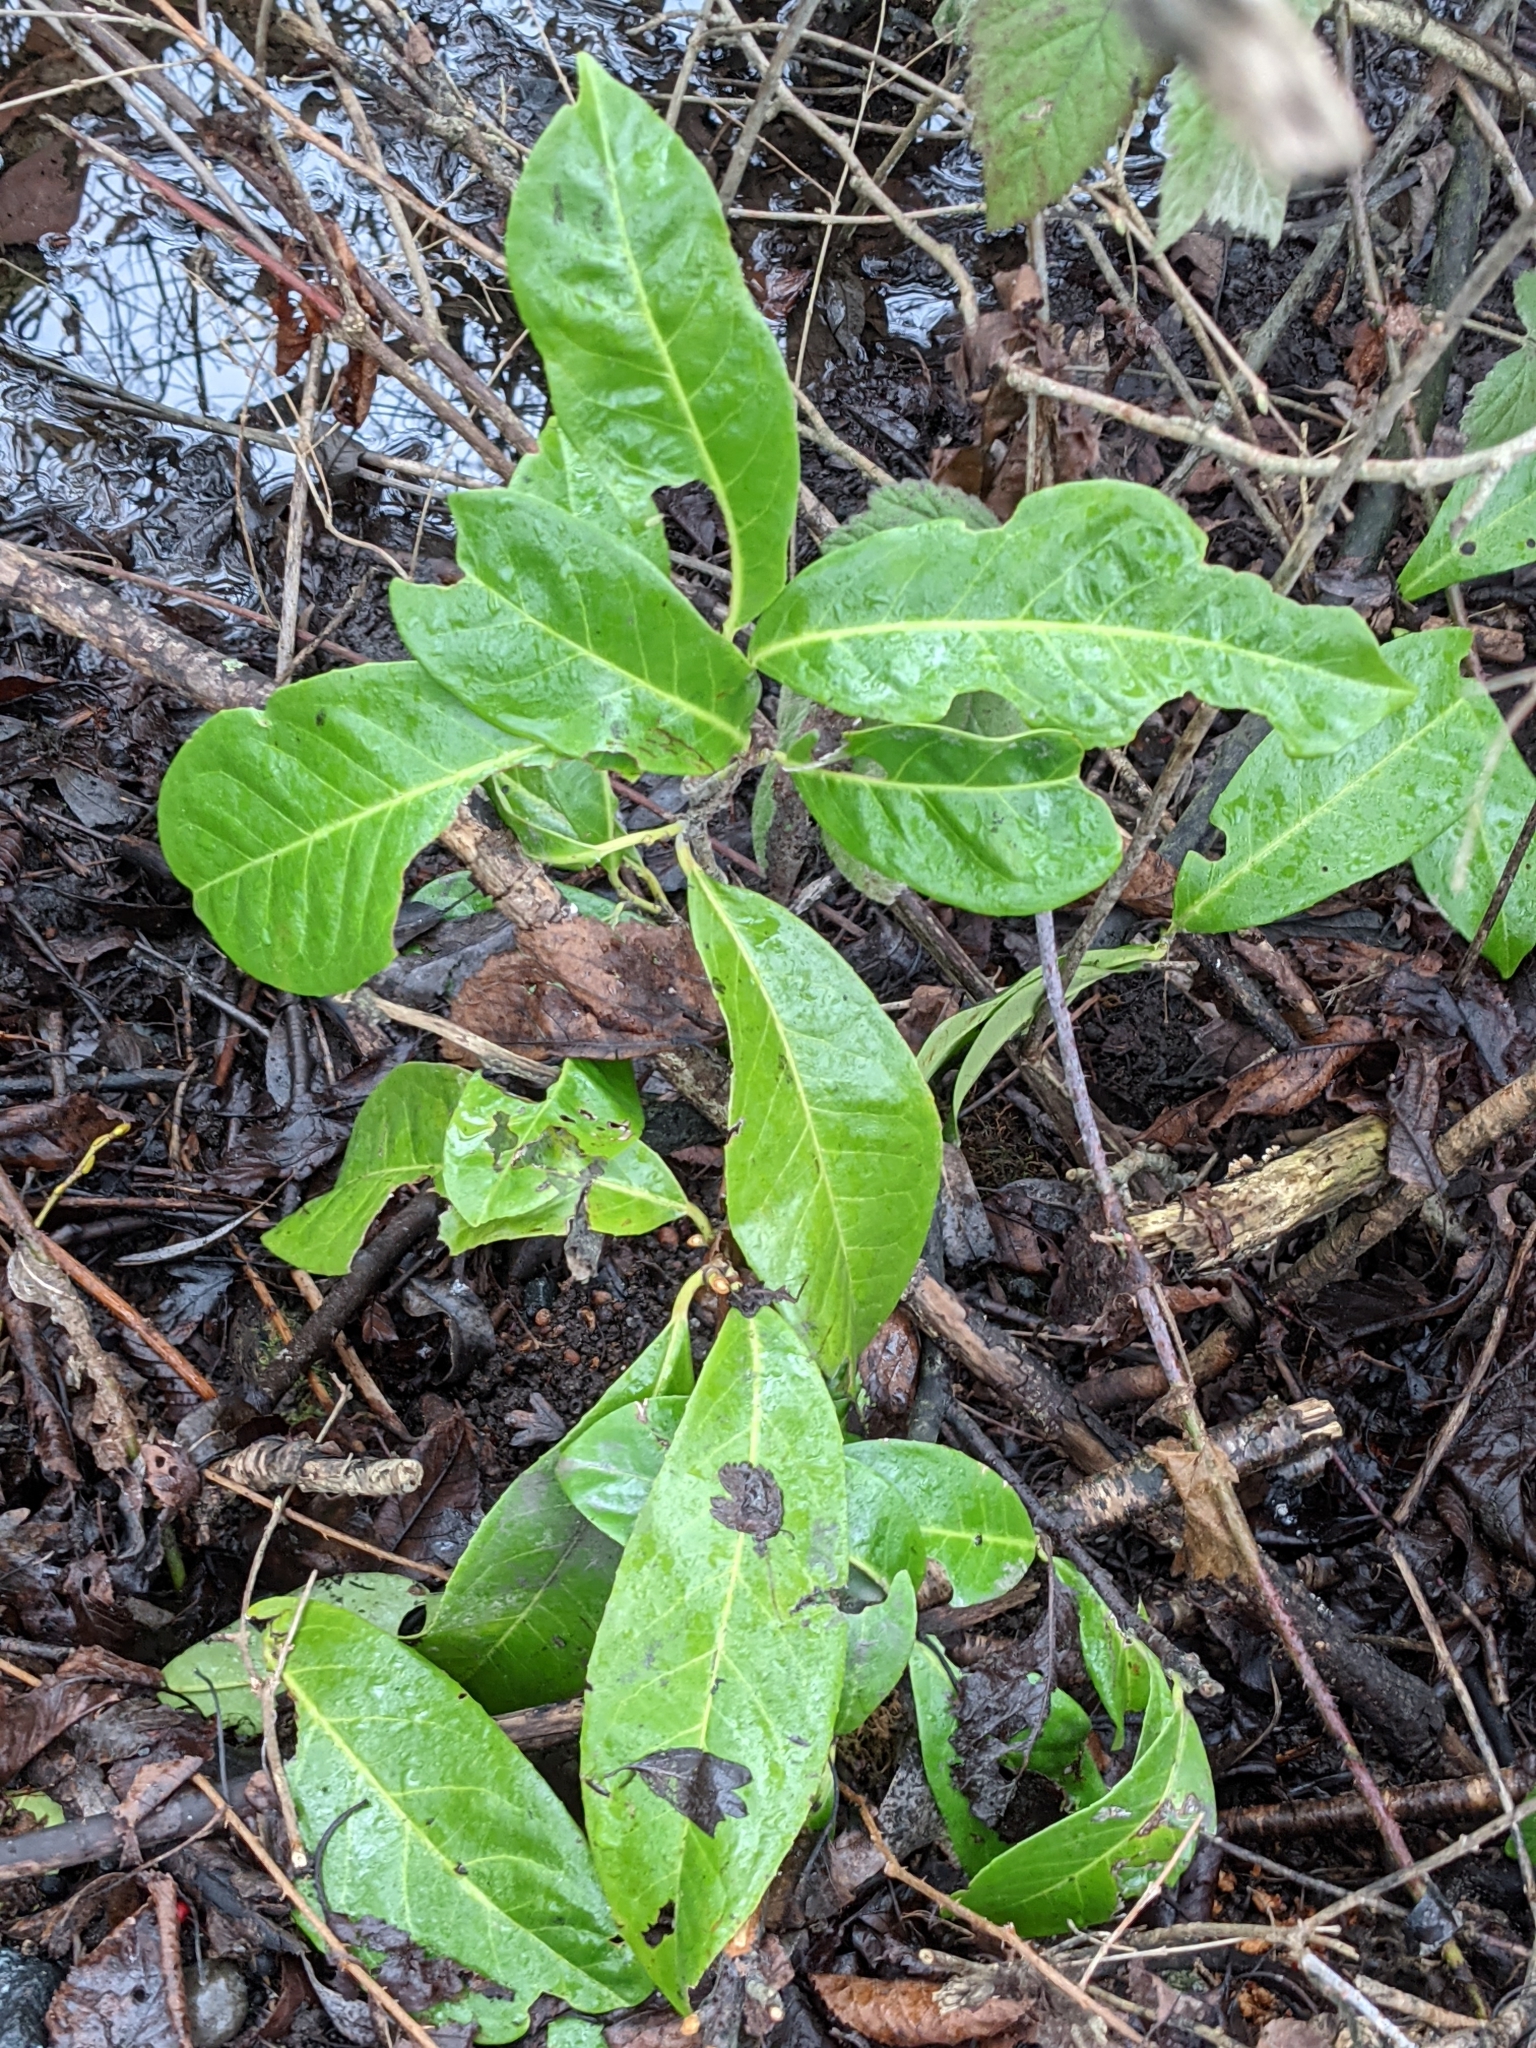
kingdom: Plantae
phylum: Tracheophyta
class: Magnoliopsida
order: Rosales
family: Rosaceae
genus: Prunus
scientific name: Prunus laurocerasus
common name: Cherry laurel
